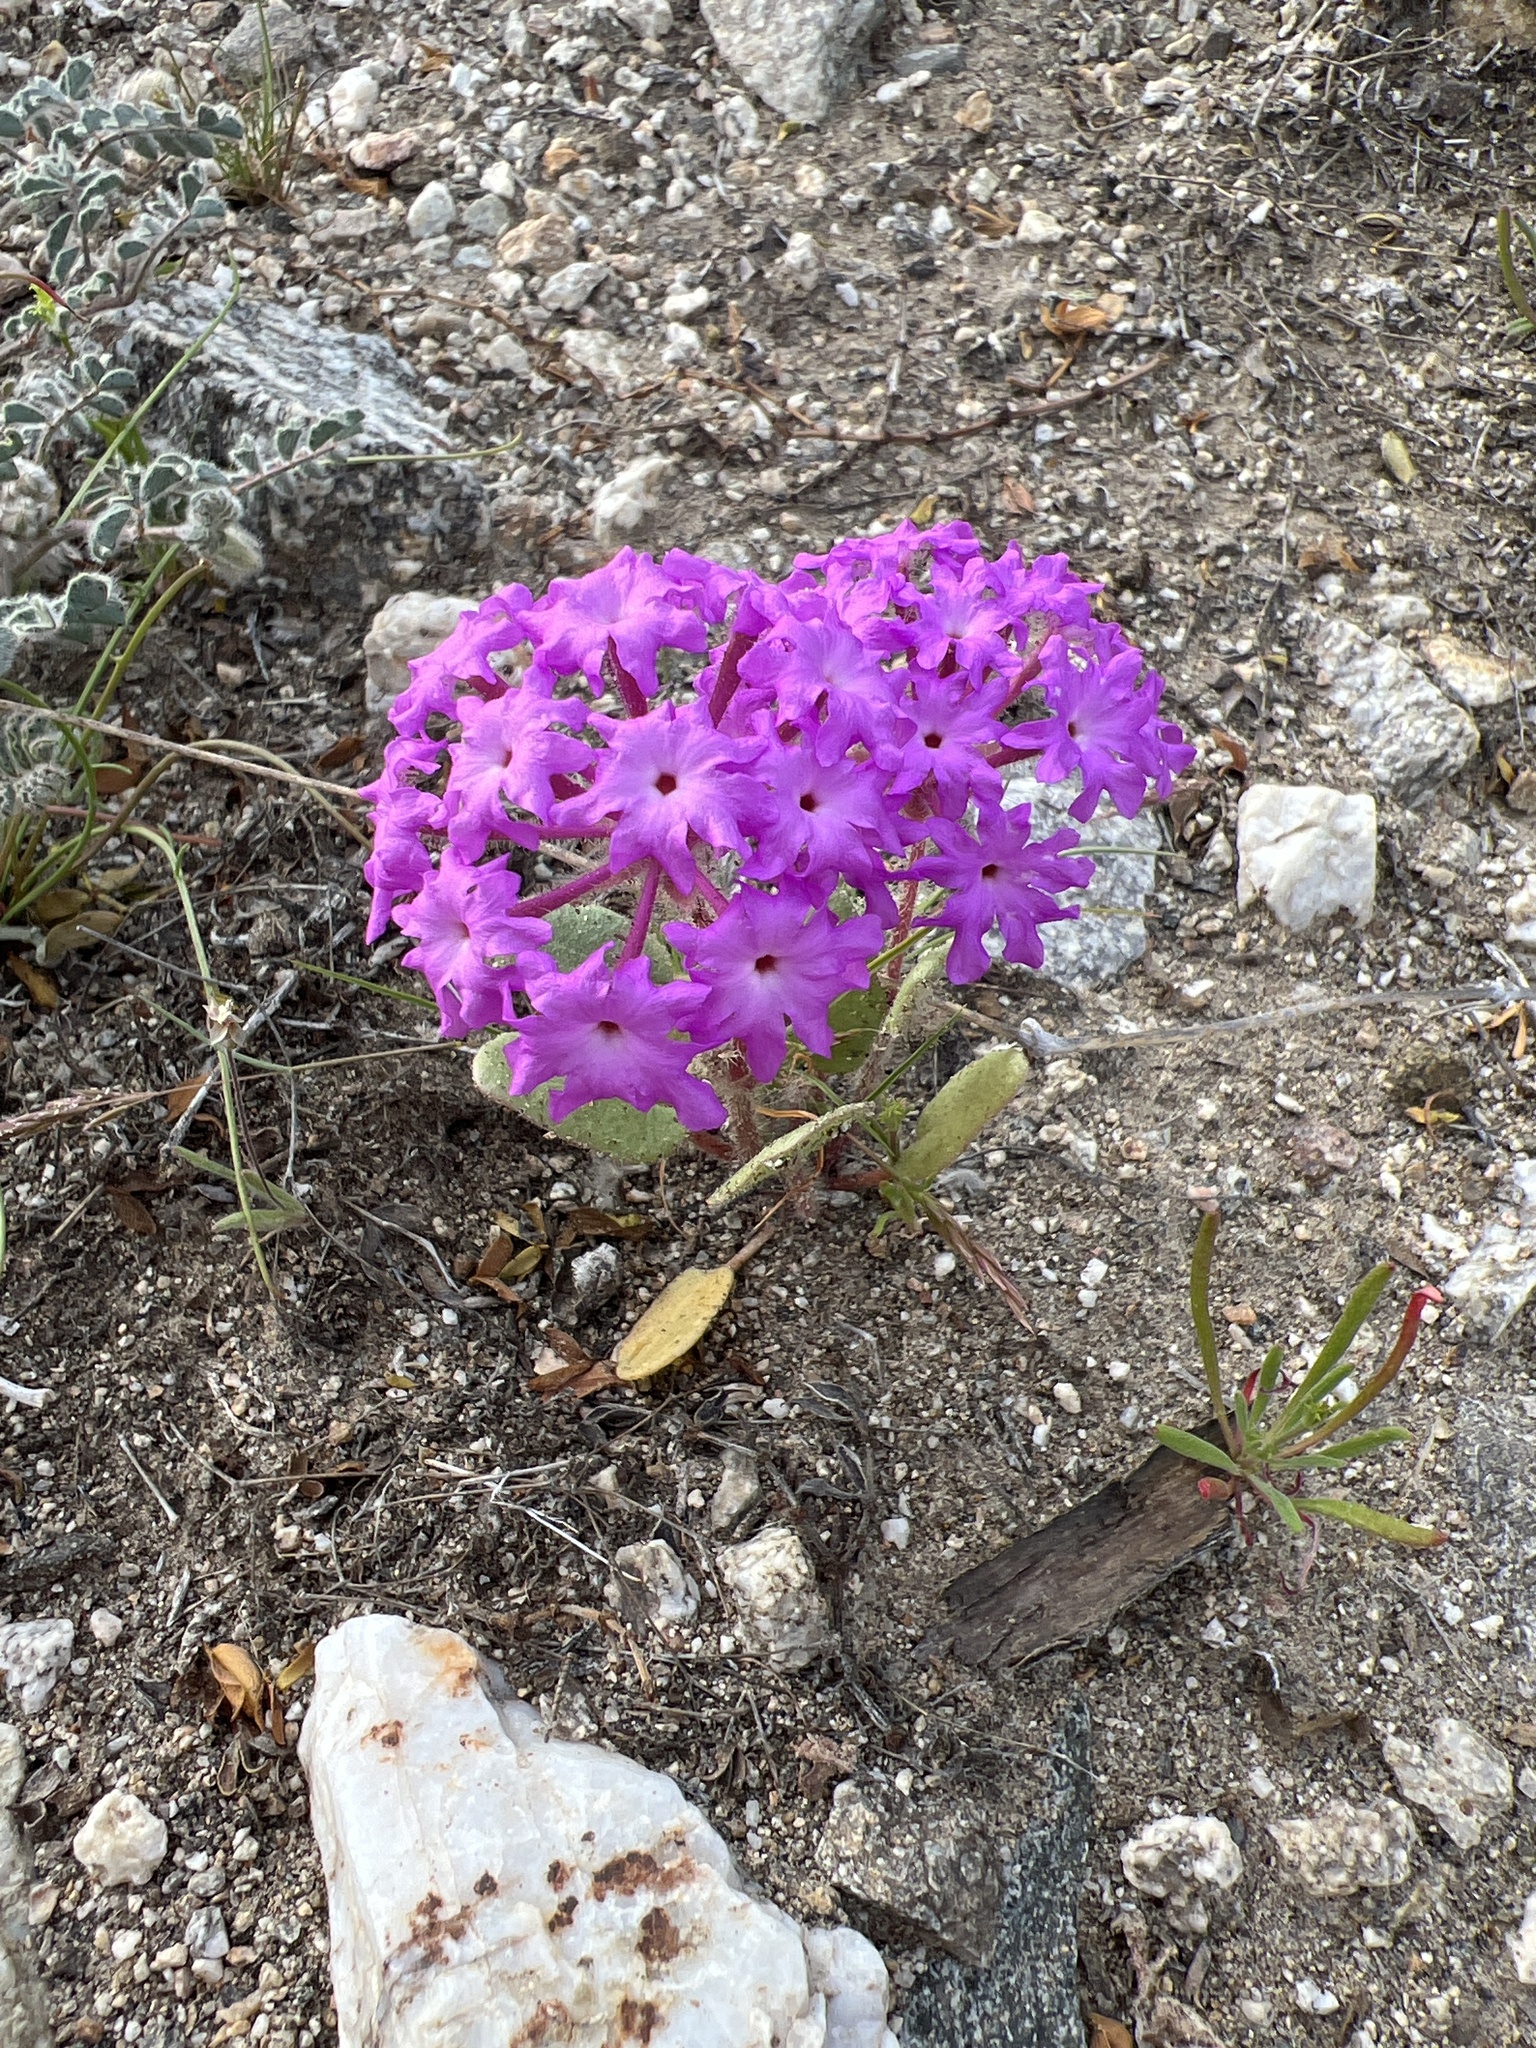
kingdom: Plantae
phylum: Tracheophyta
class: Magnoliopsida
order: Caryophyllales
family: Nyctaginaceae
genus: Abronia
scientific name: Abronia villosa
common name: Desert sand-verbena
